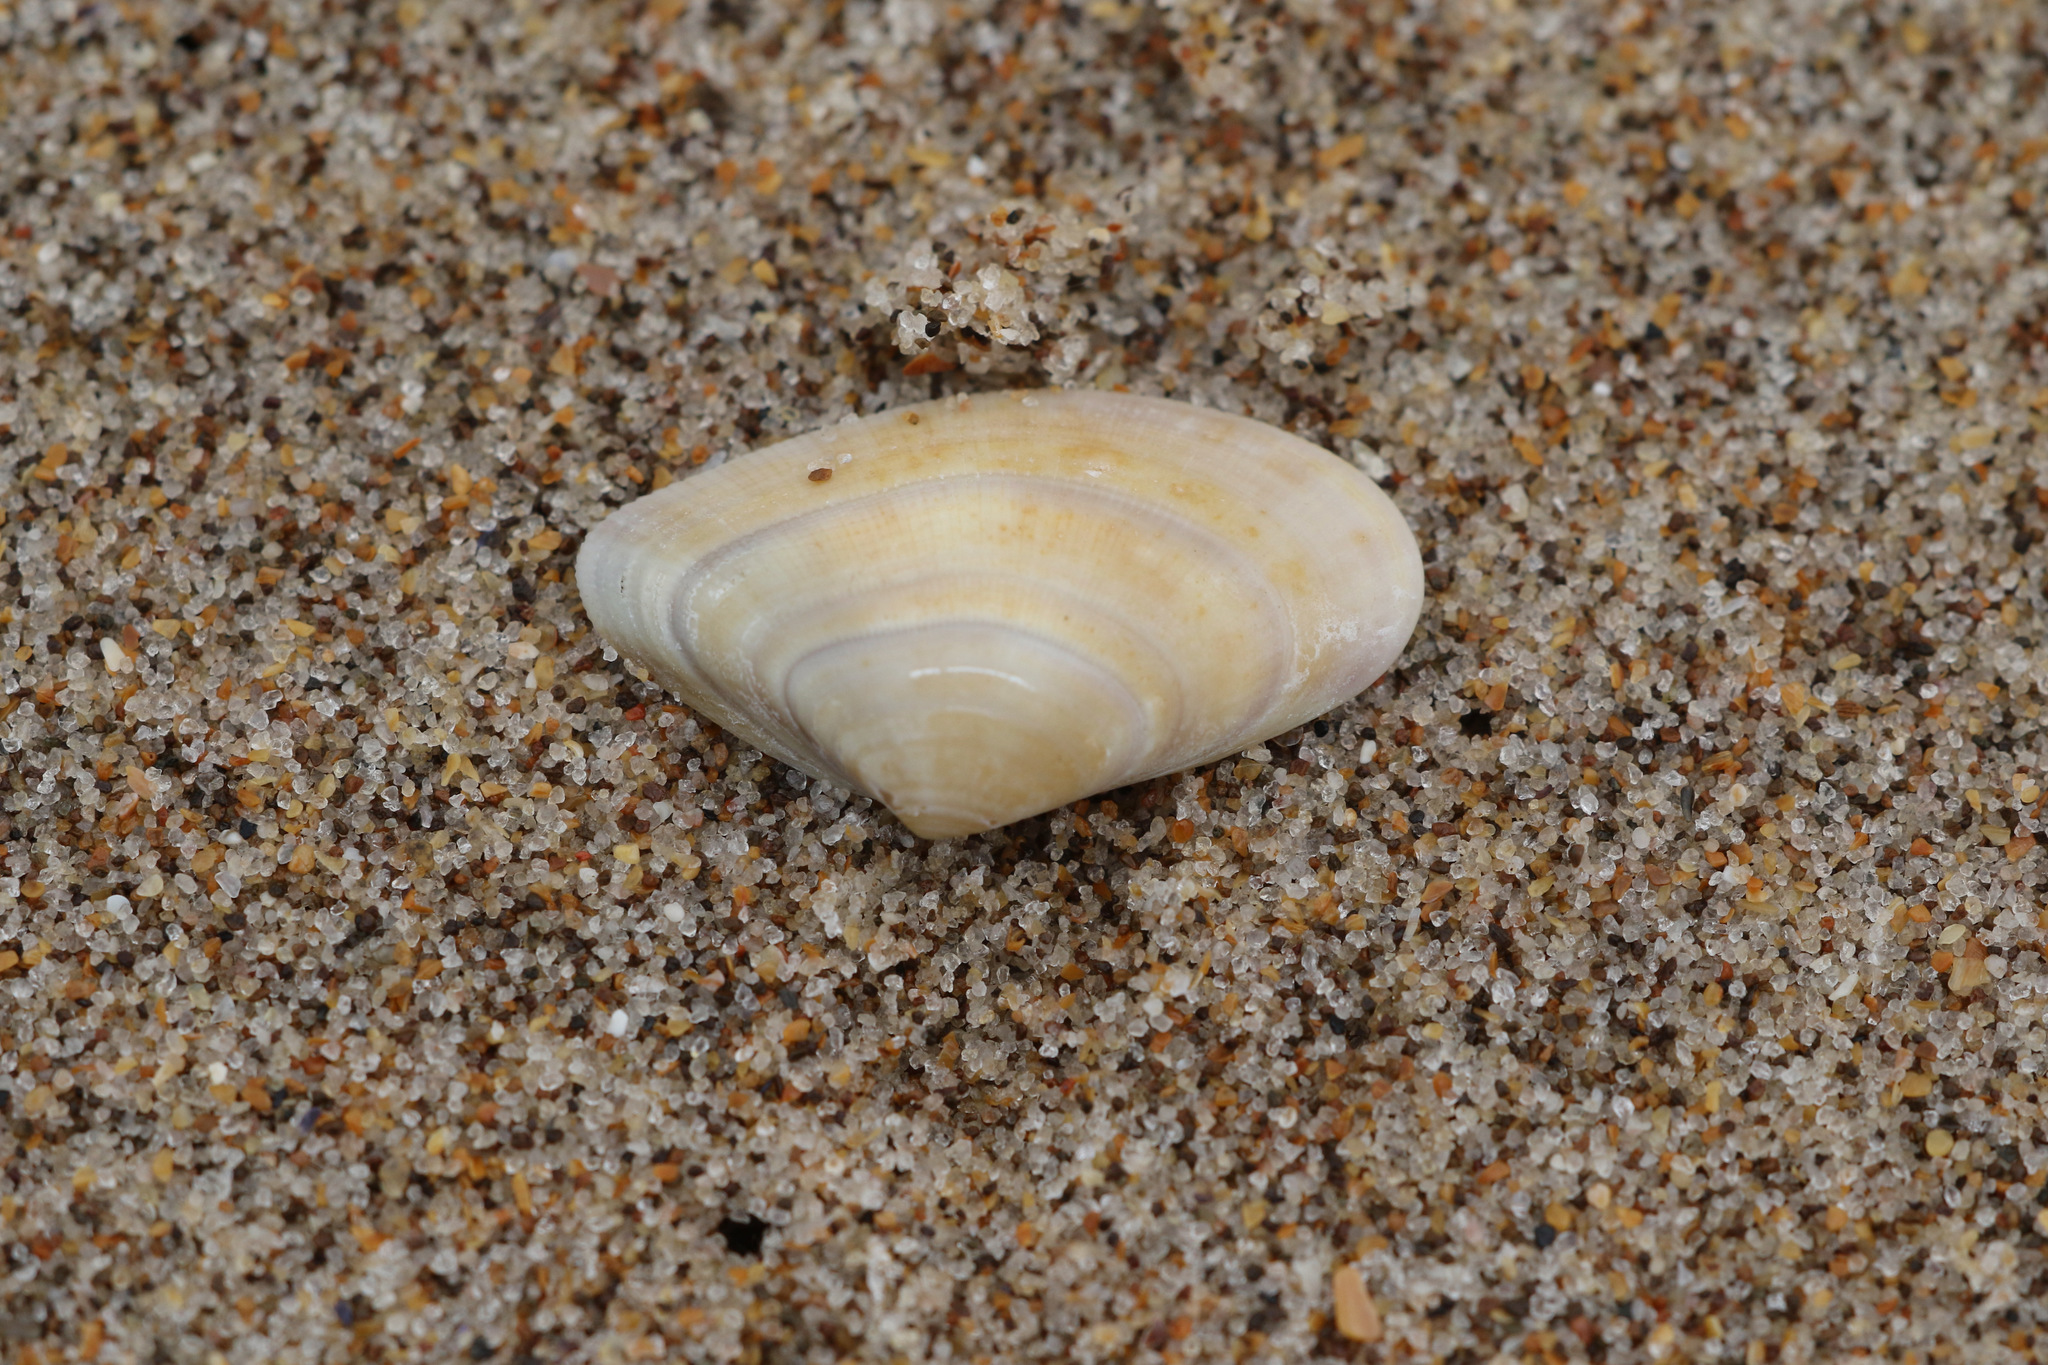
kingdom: Animalia
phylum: Mollusca
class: Bivalvia
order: Cardiida
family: Donacidae
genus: Donax
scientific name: Donax vittatus
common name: Banded wedge-shell
